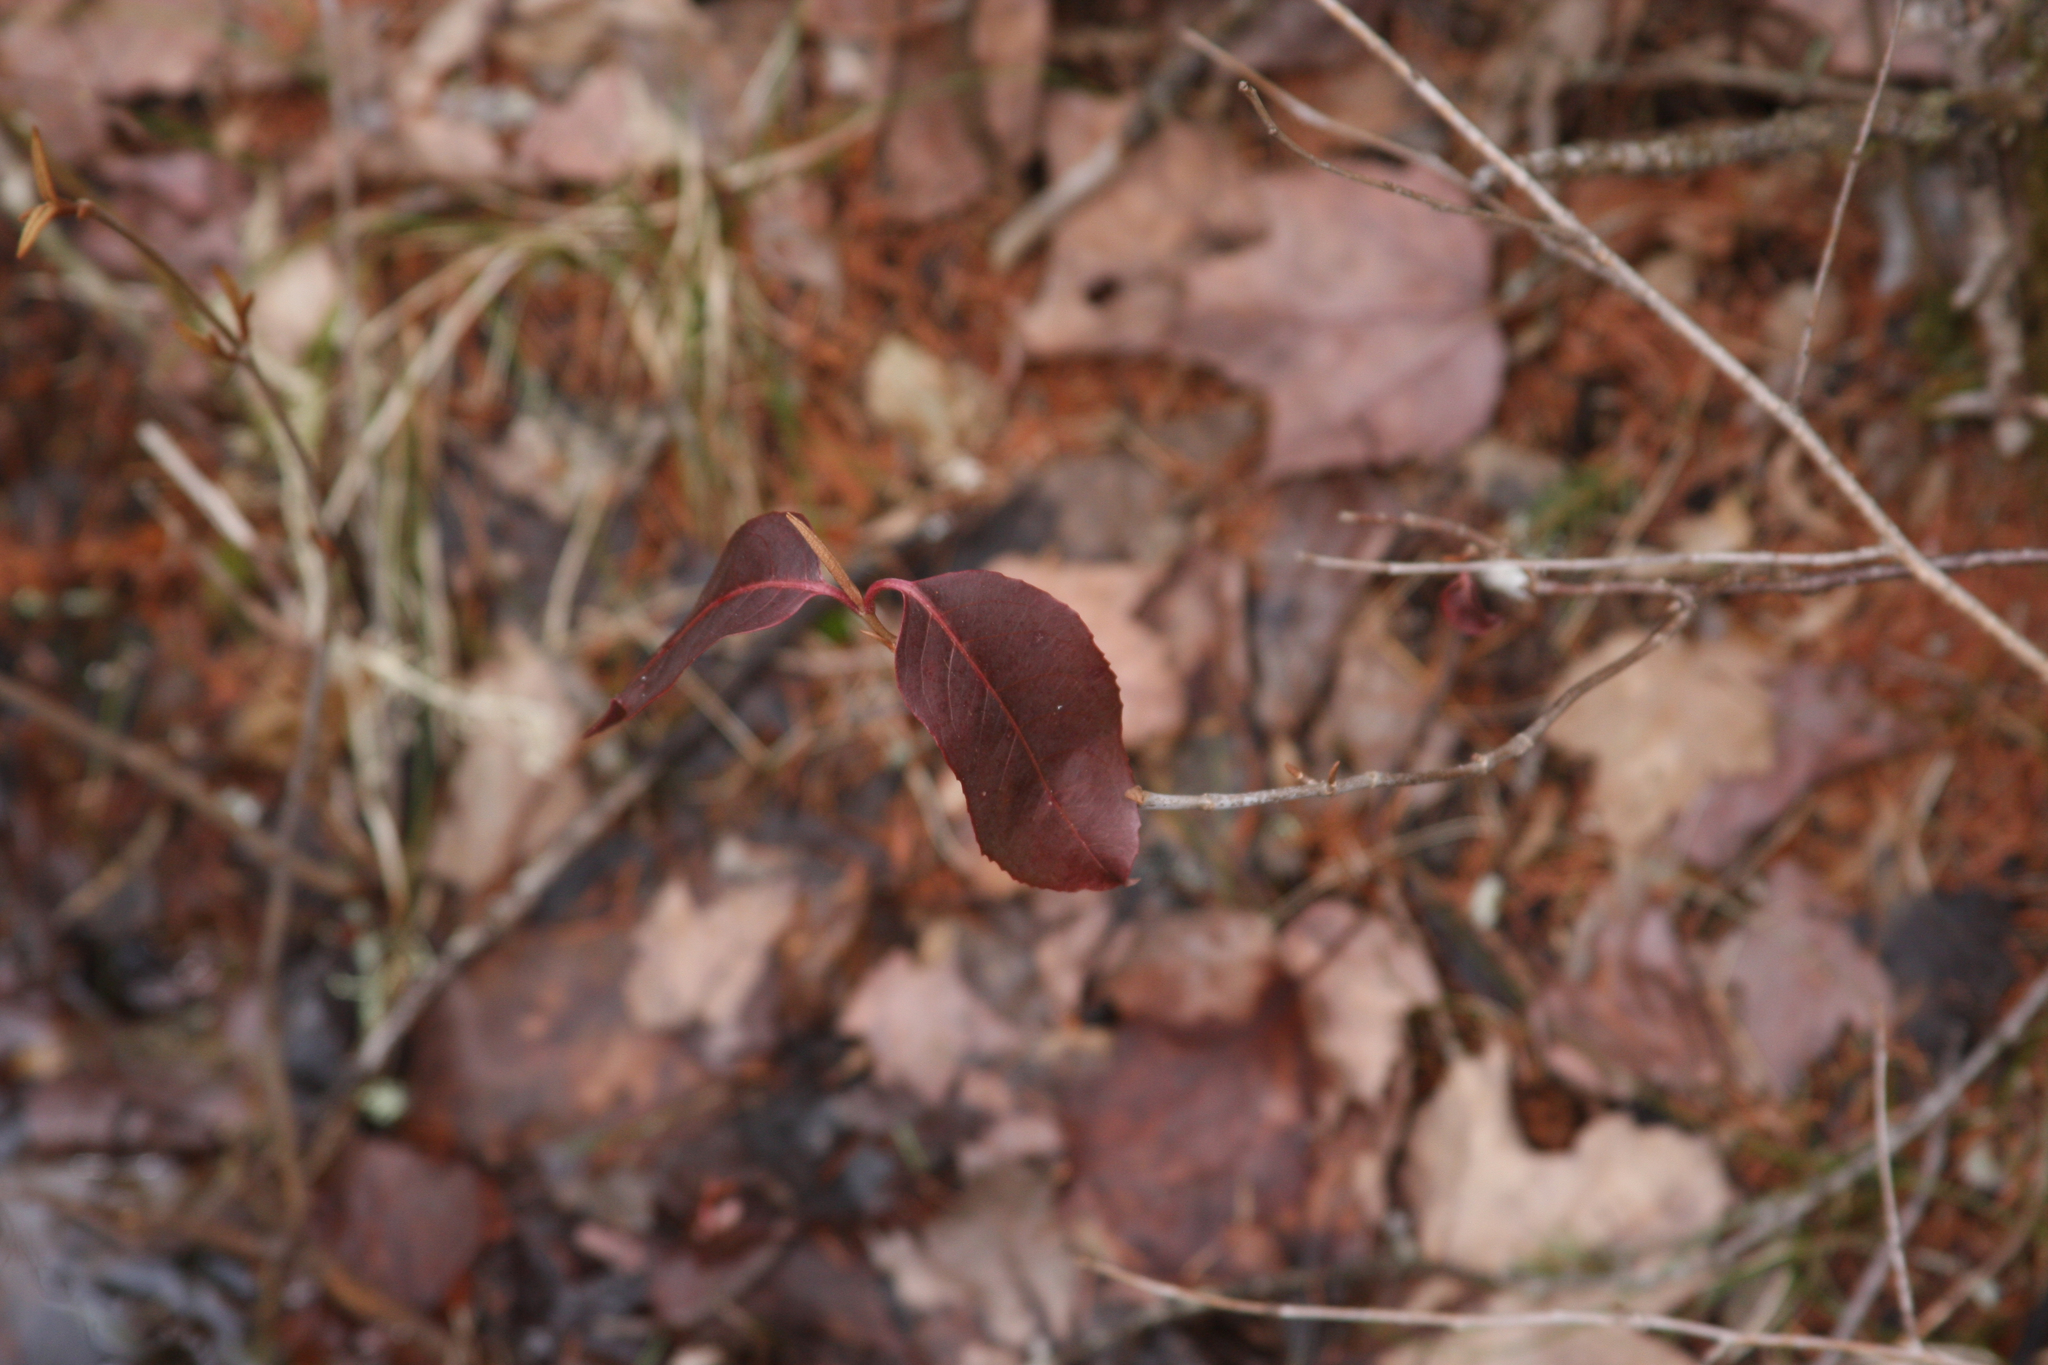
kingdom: Plantae
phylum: Tracheophyta
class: Magnoliopsida
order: Dipsacales
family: Viburnaceae
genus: Viburnum
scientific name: Viburnum cassinoides
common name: Swamp haw
